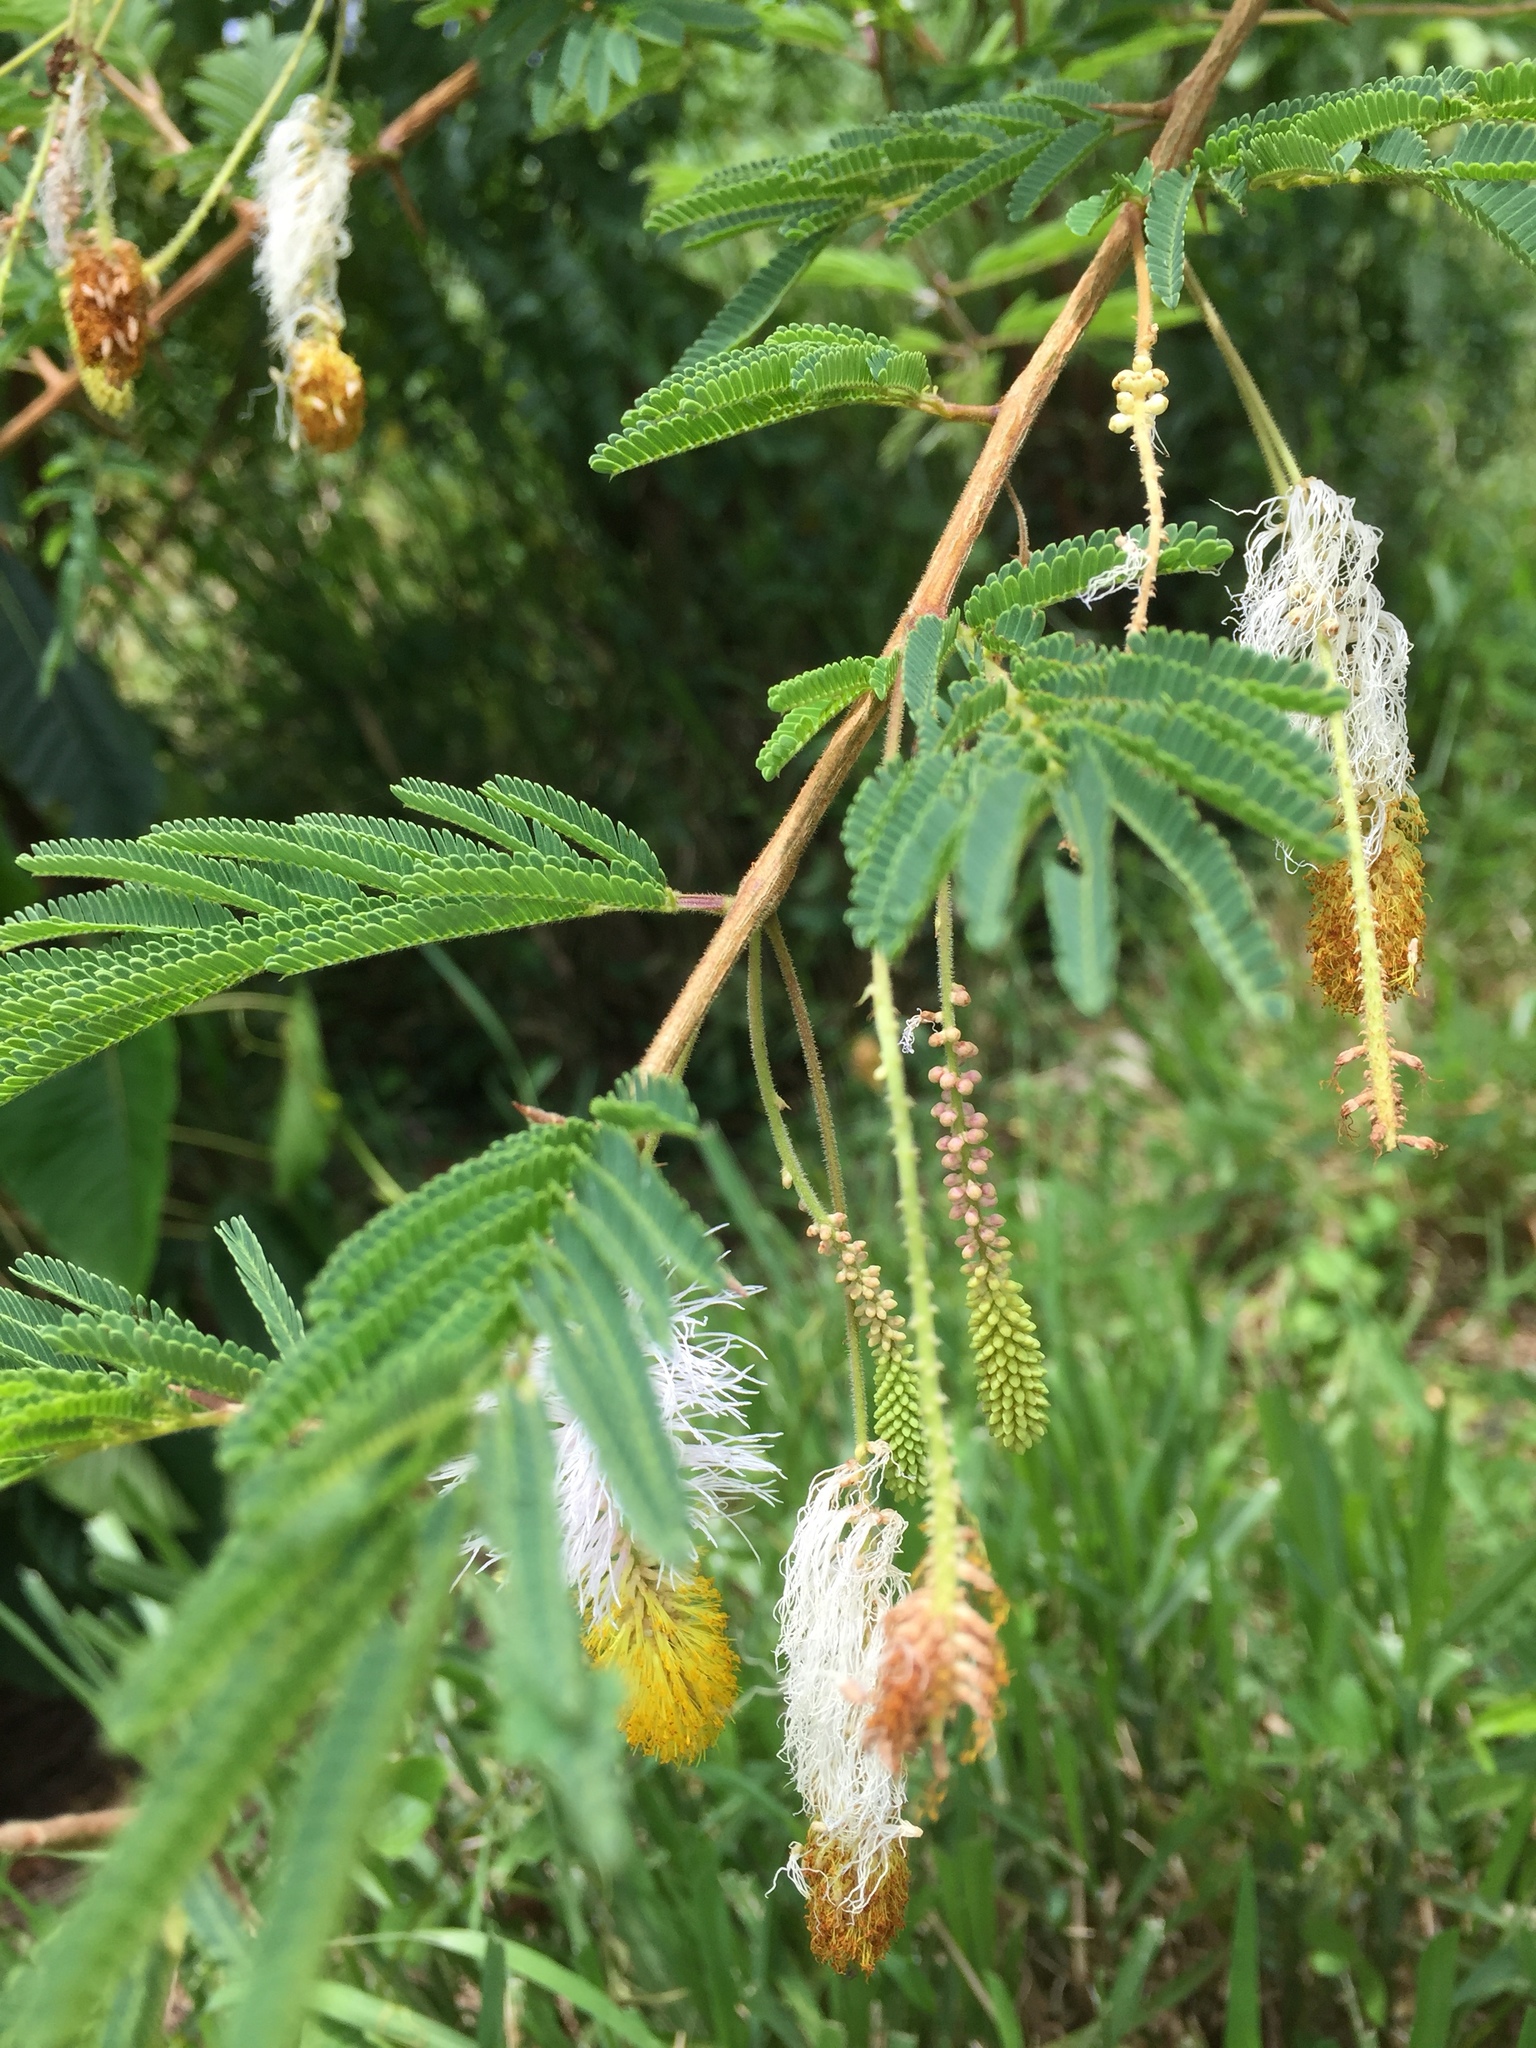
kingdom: Plantae
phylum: Tracheophyta
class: Magnoliopsida
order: Fabales
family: Fabaceae
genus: Dichrostachys
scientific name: Dichrostachys cinerea
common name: Sicklebush
